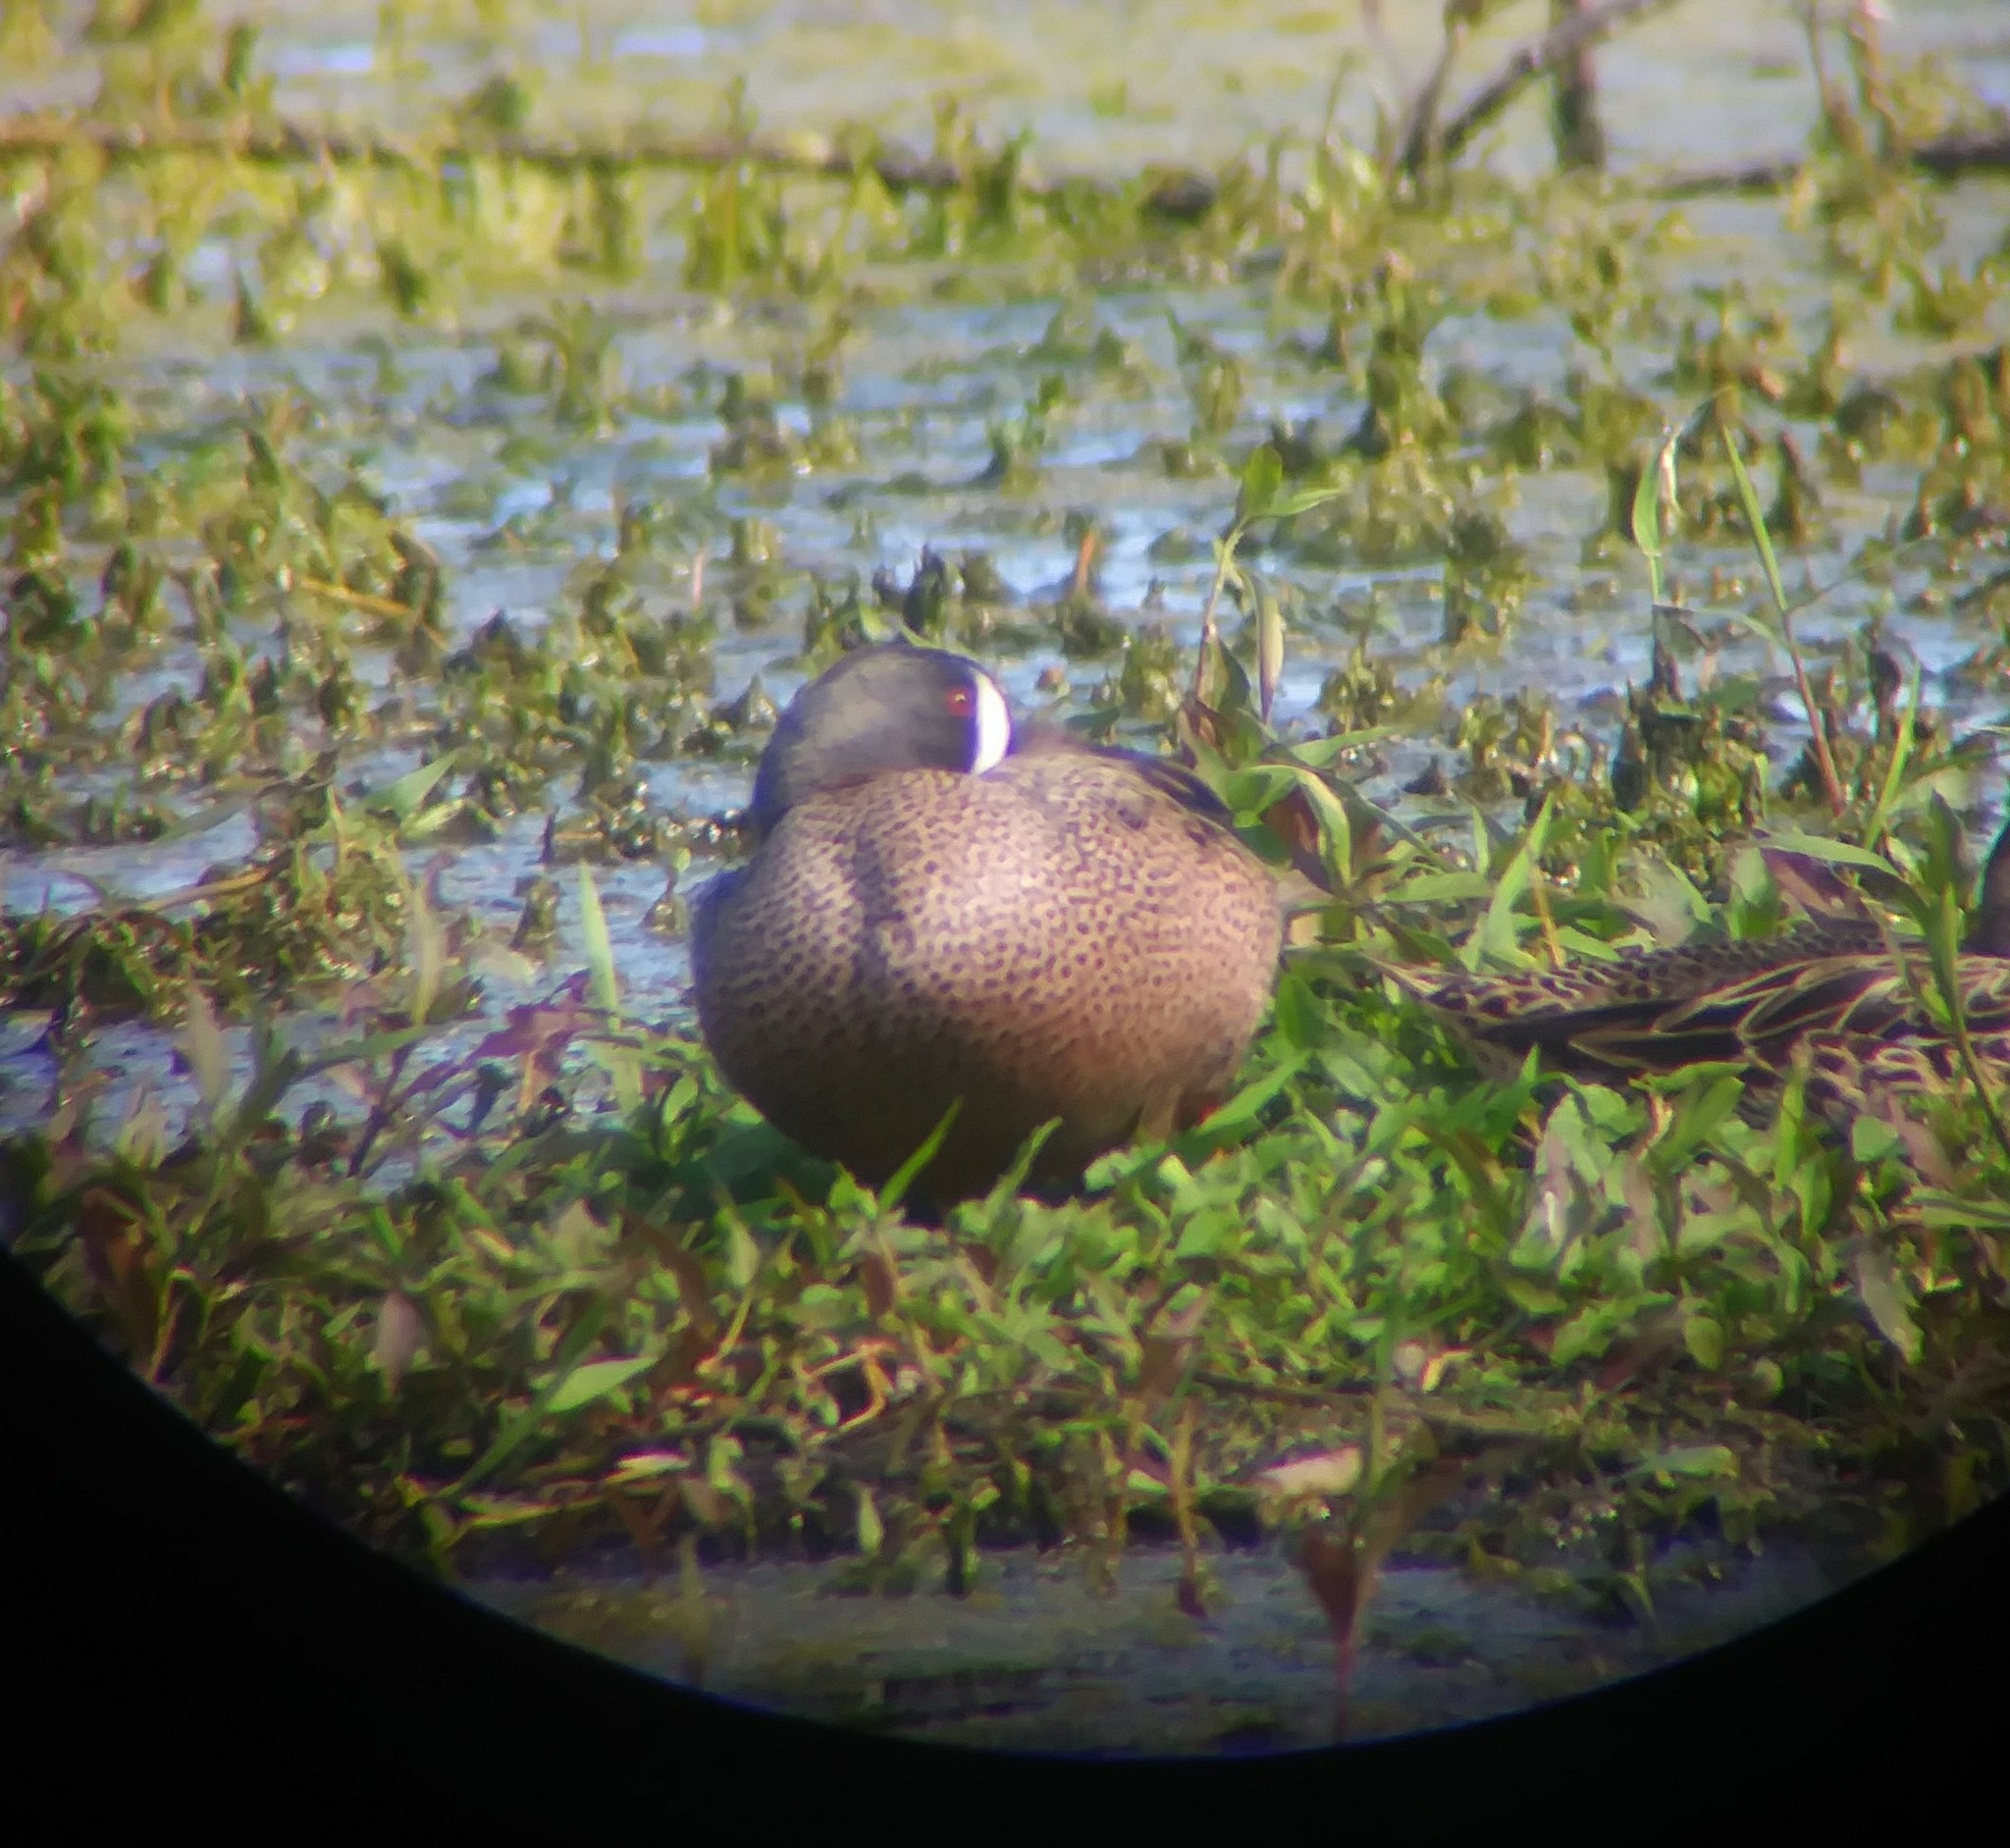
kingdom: Animalia
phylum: Chordata
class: Aves
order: Anseriformes
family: Anatidae
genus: Spatula
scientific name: Spatula discors
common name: Blue-winged teal
